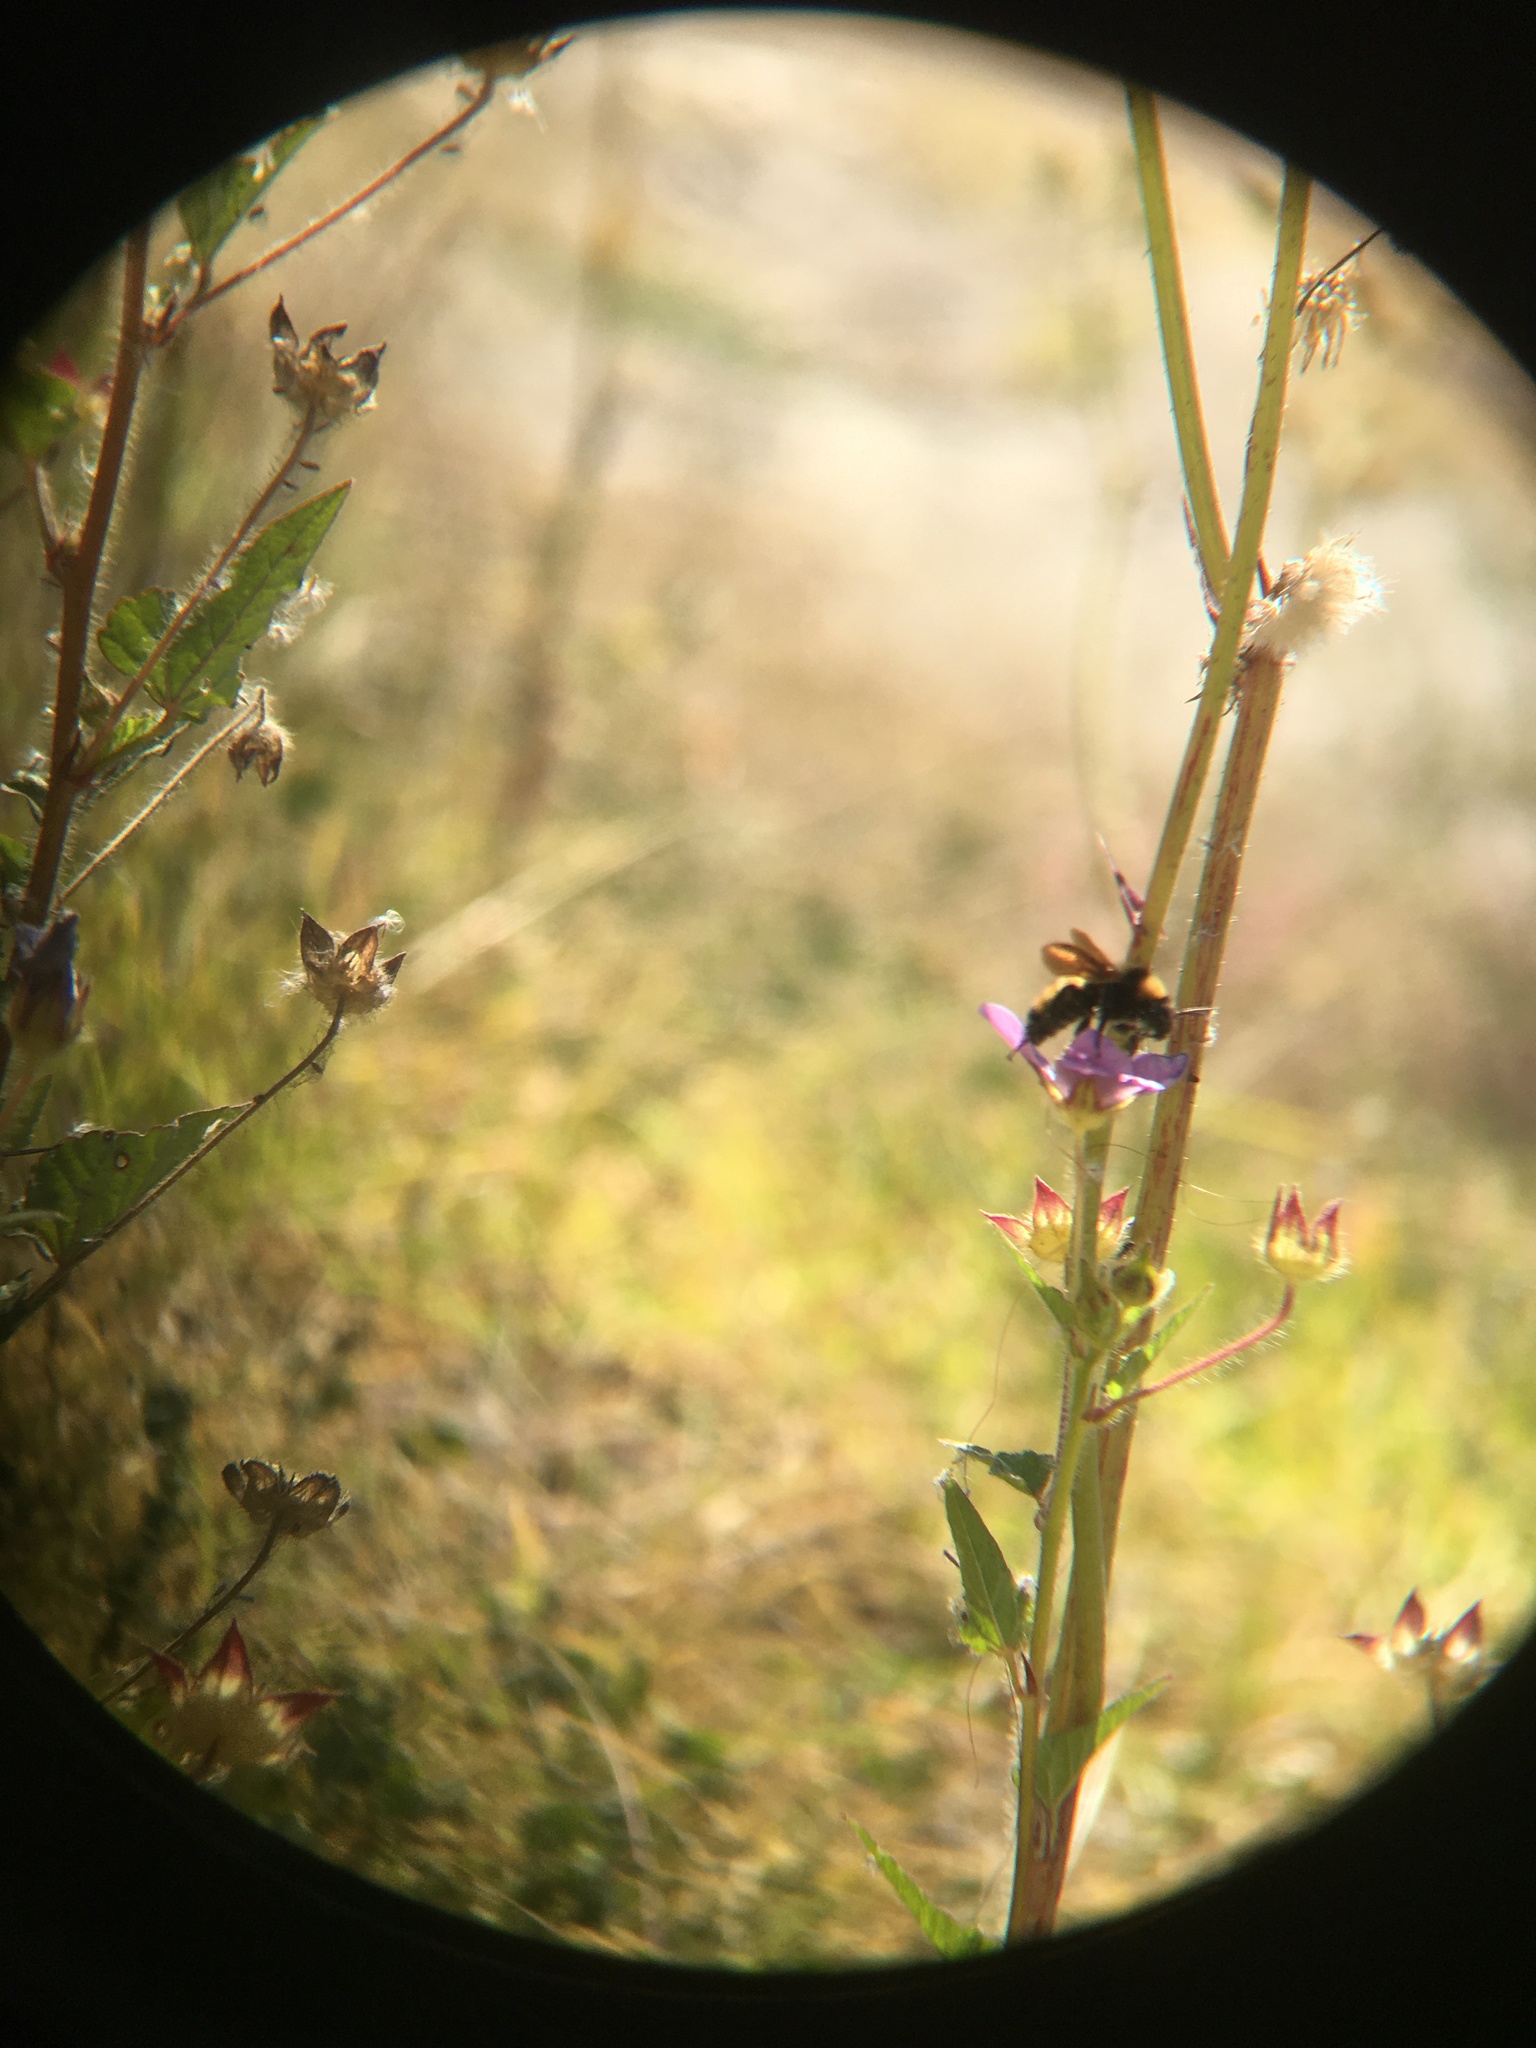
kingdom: Animalia
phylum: Arthropoda
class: Insecta
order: Hymenoptera
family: Apidae
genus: Bombus
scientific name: Bombus sonorus
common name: Sonoran bumble bee
